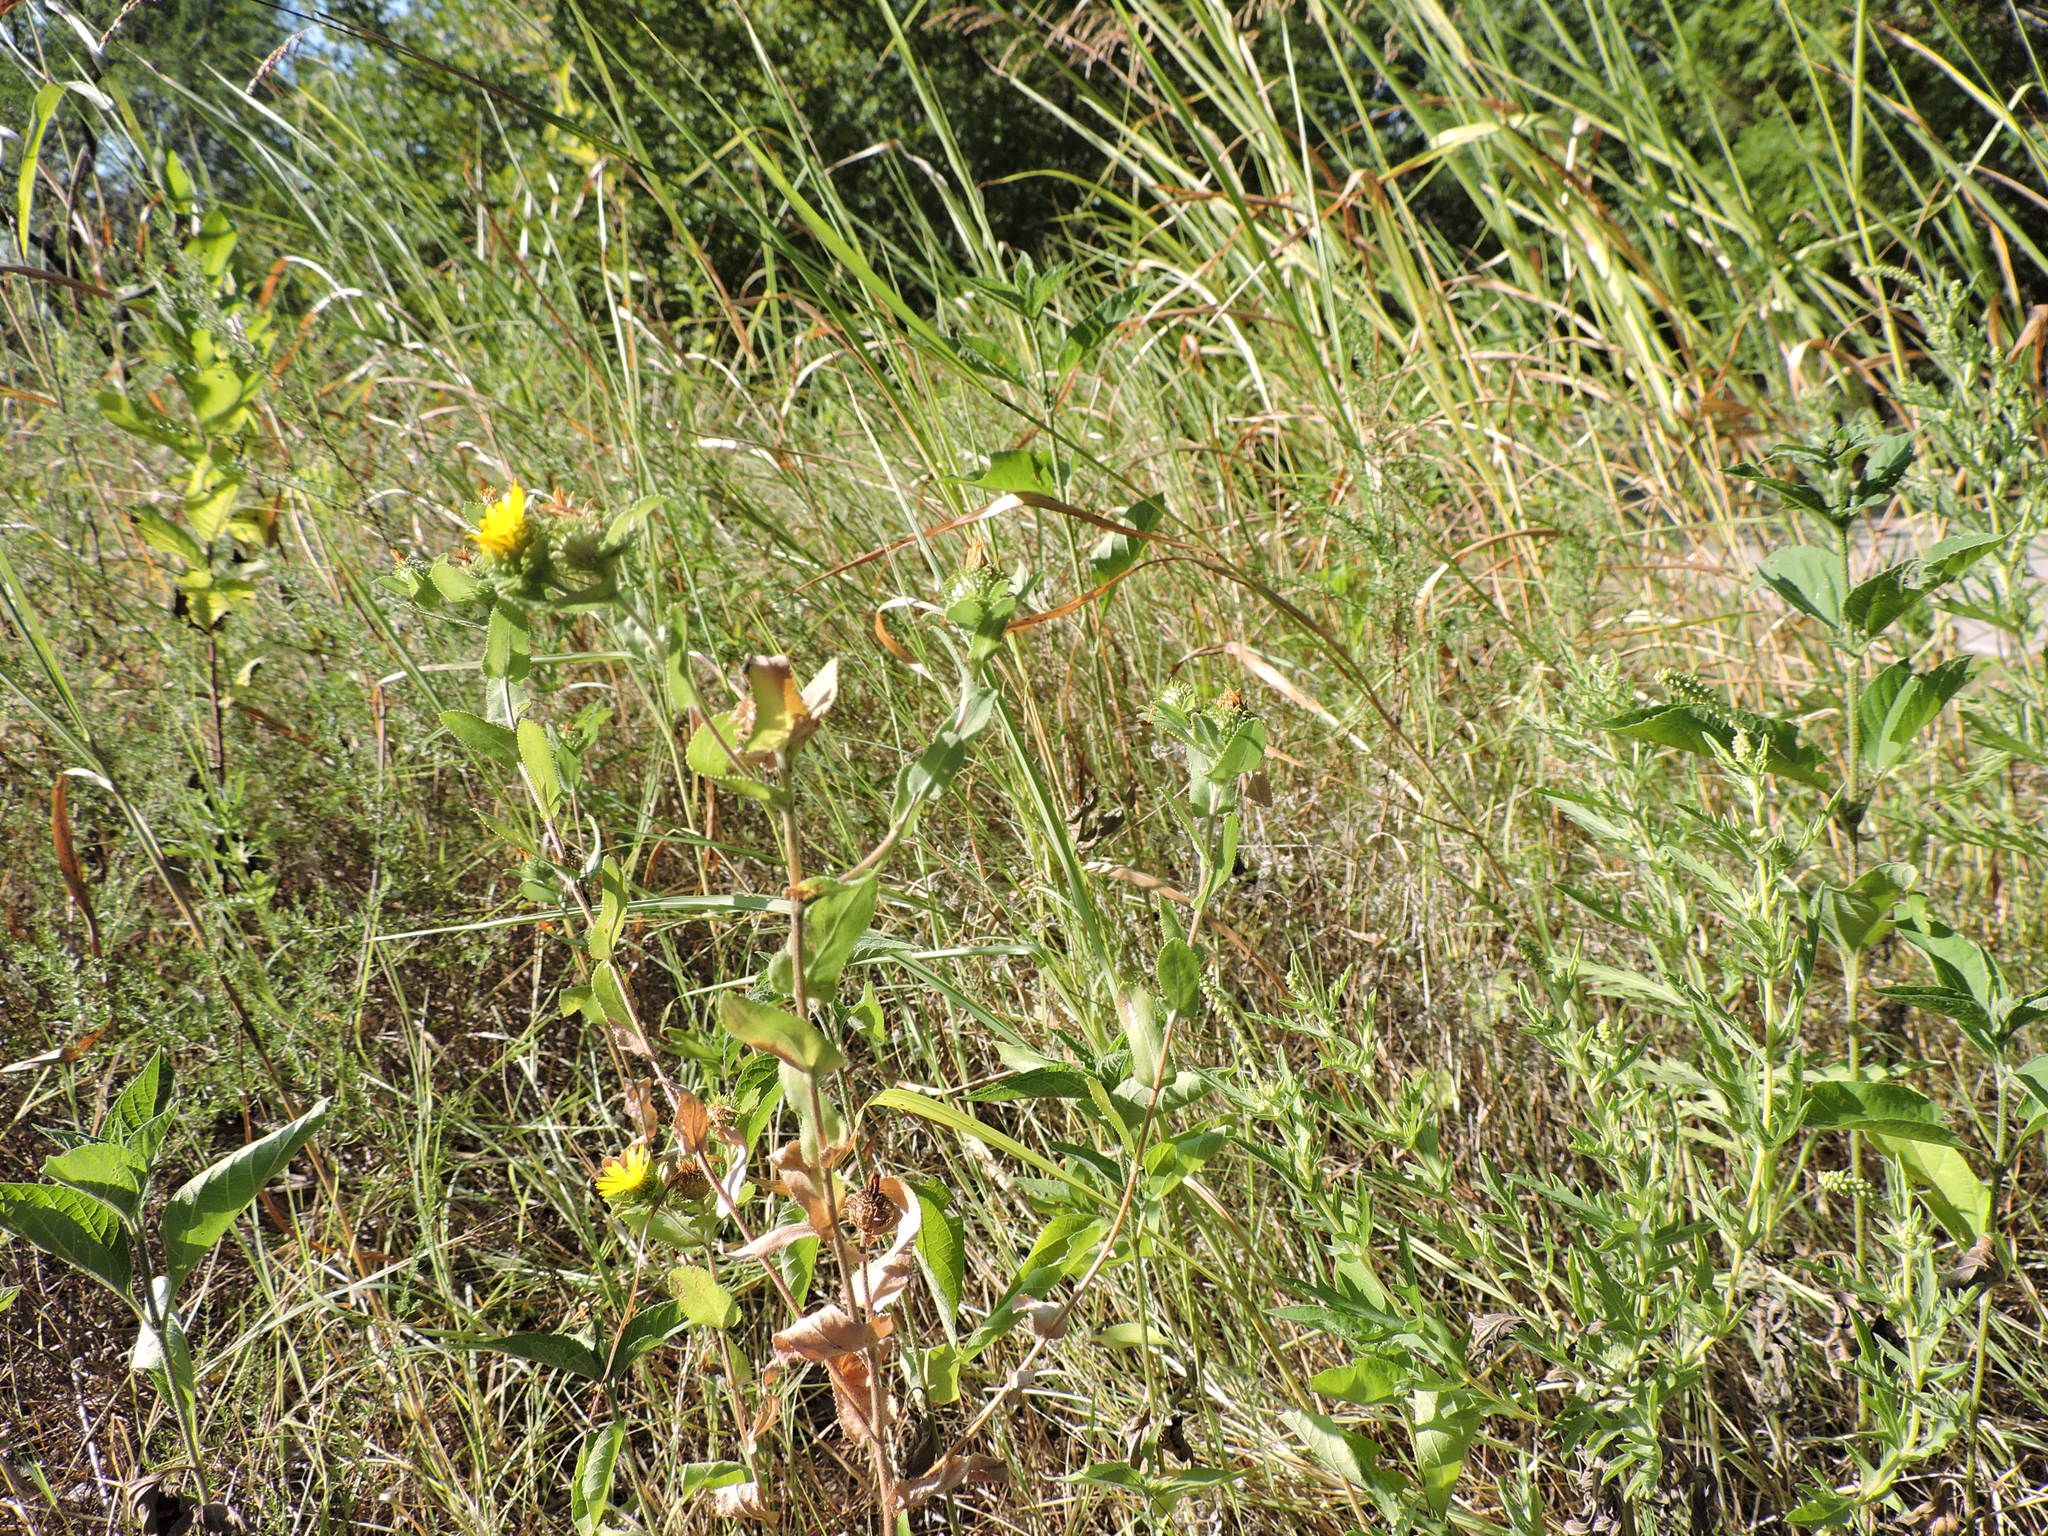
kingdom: Plantae
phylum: Tracheophyta
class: Magnoliopsida
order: Asterales
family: Asteraceae
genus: Grindelia
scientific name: Grindelia adenodonta
